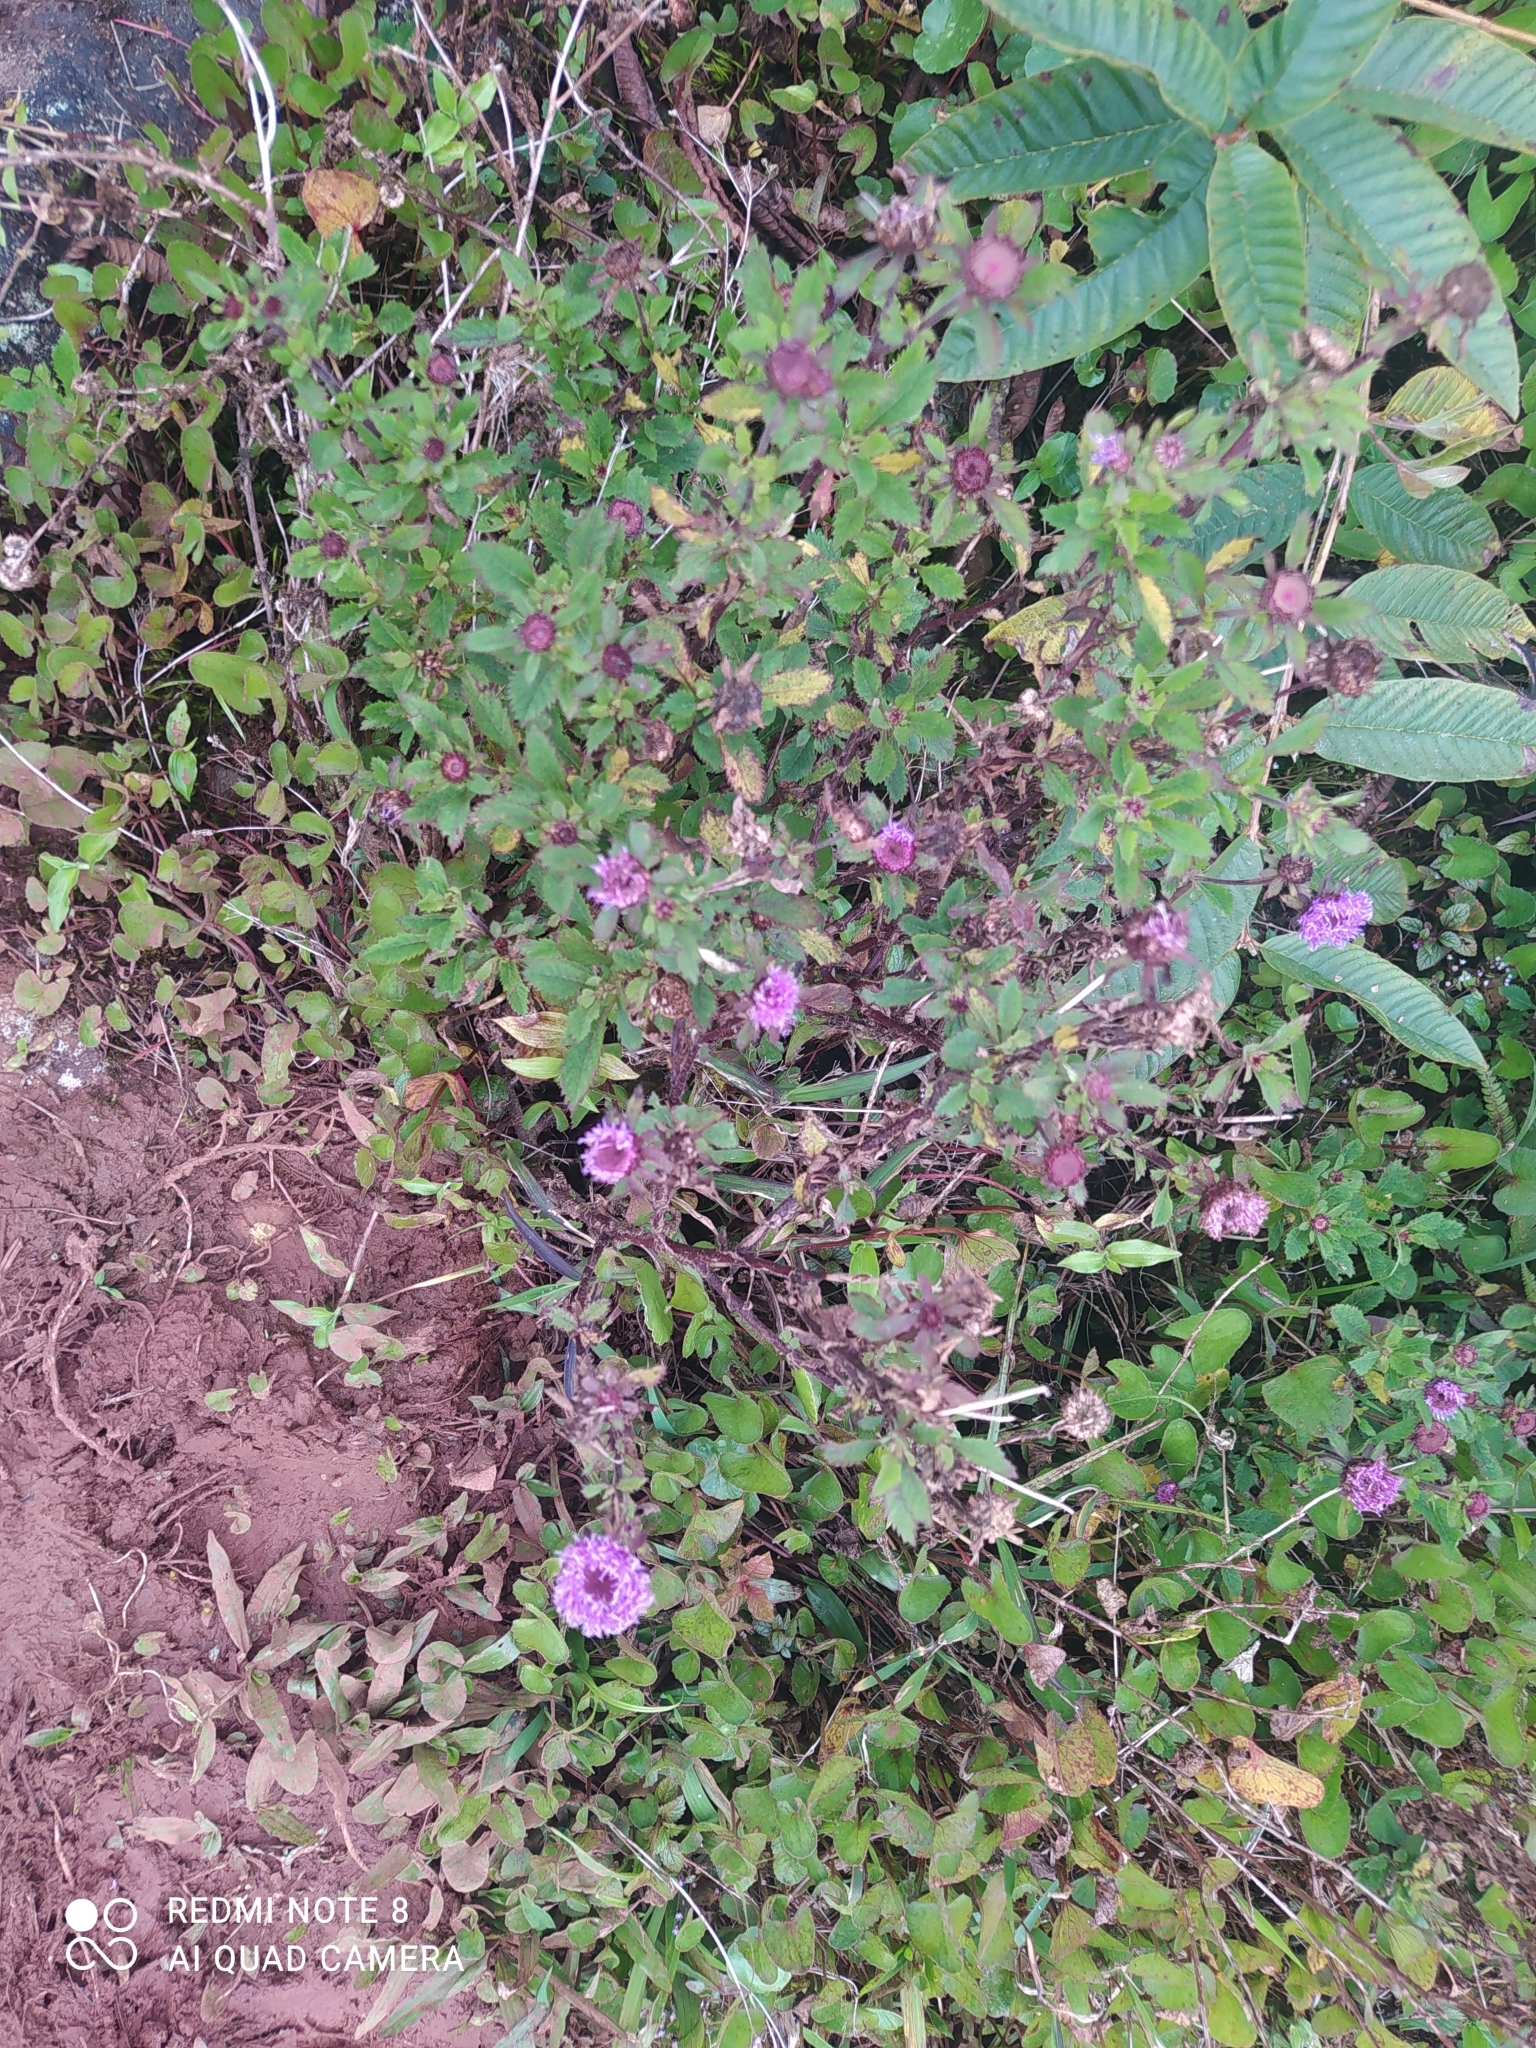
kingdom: Plantae
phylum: Tracheophyta
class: Magnoliopsida
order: Asterales
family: Asteraceae
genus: Centratherum
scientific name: Centratherum punctatum
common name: Larkdaisy
